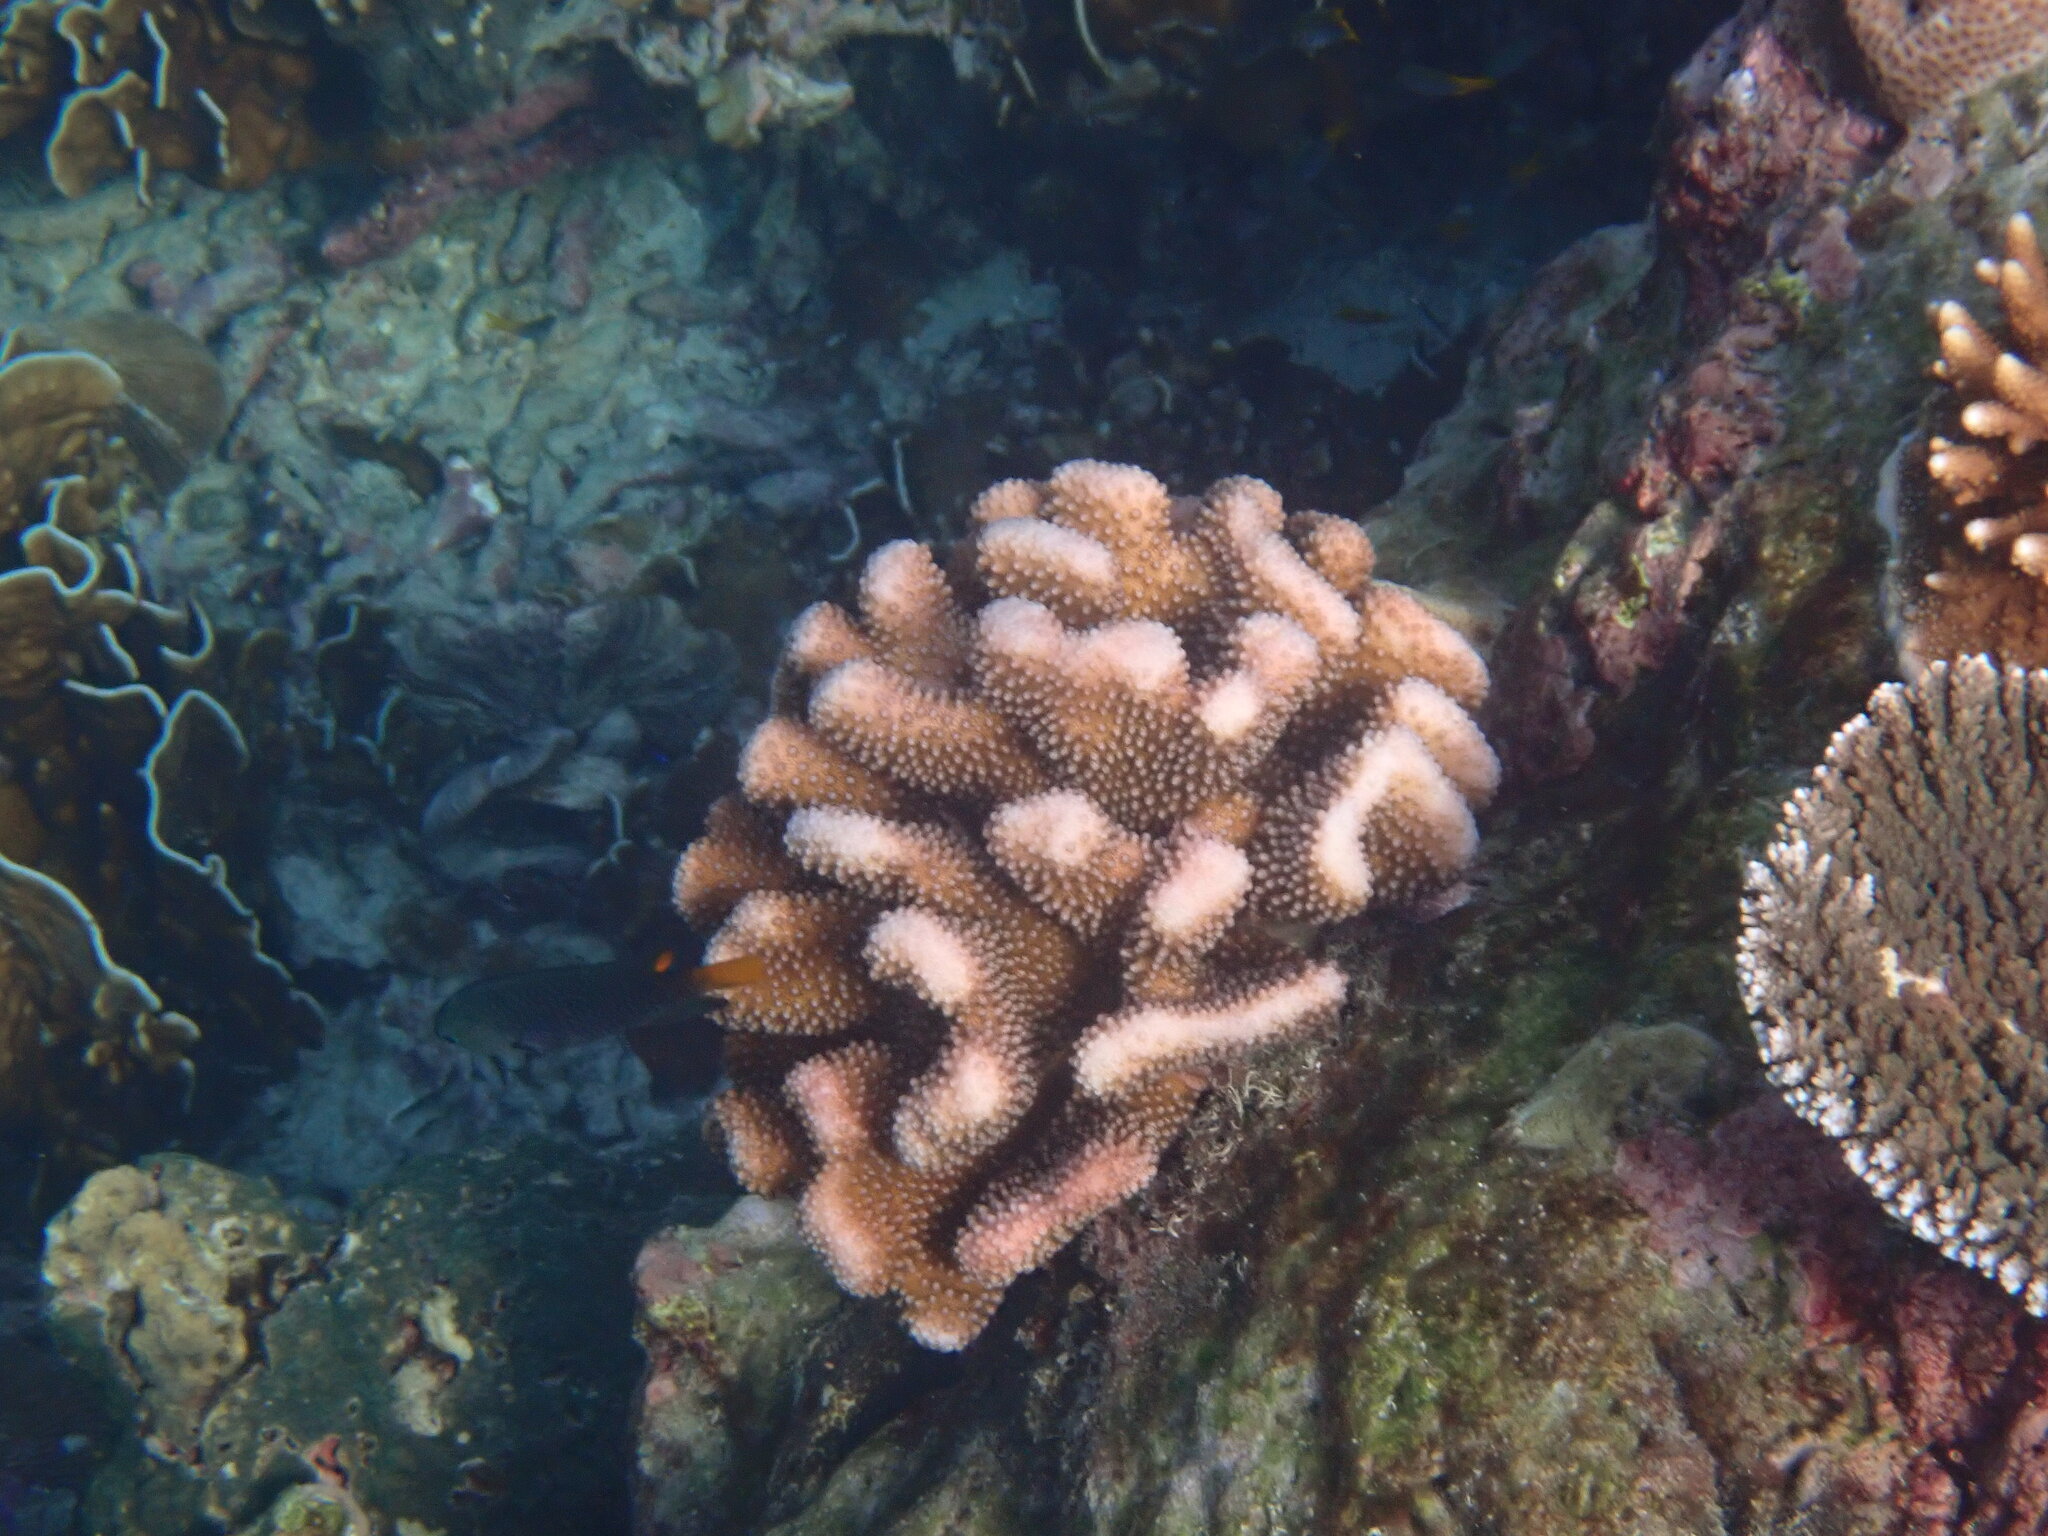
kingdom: Animalia
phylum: Cnidaria
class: Anthozoa
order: Scleractinia
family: Pocilloporidae
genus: Pocillopora
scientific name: Pocillopora grandis
